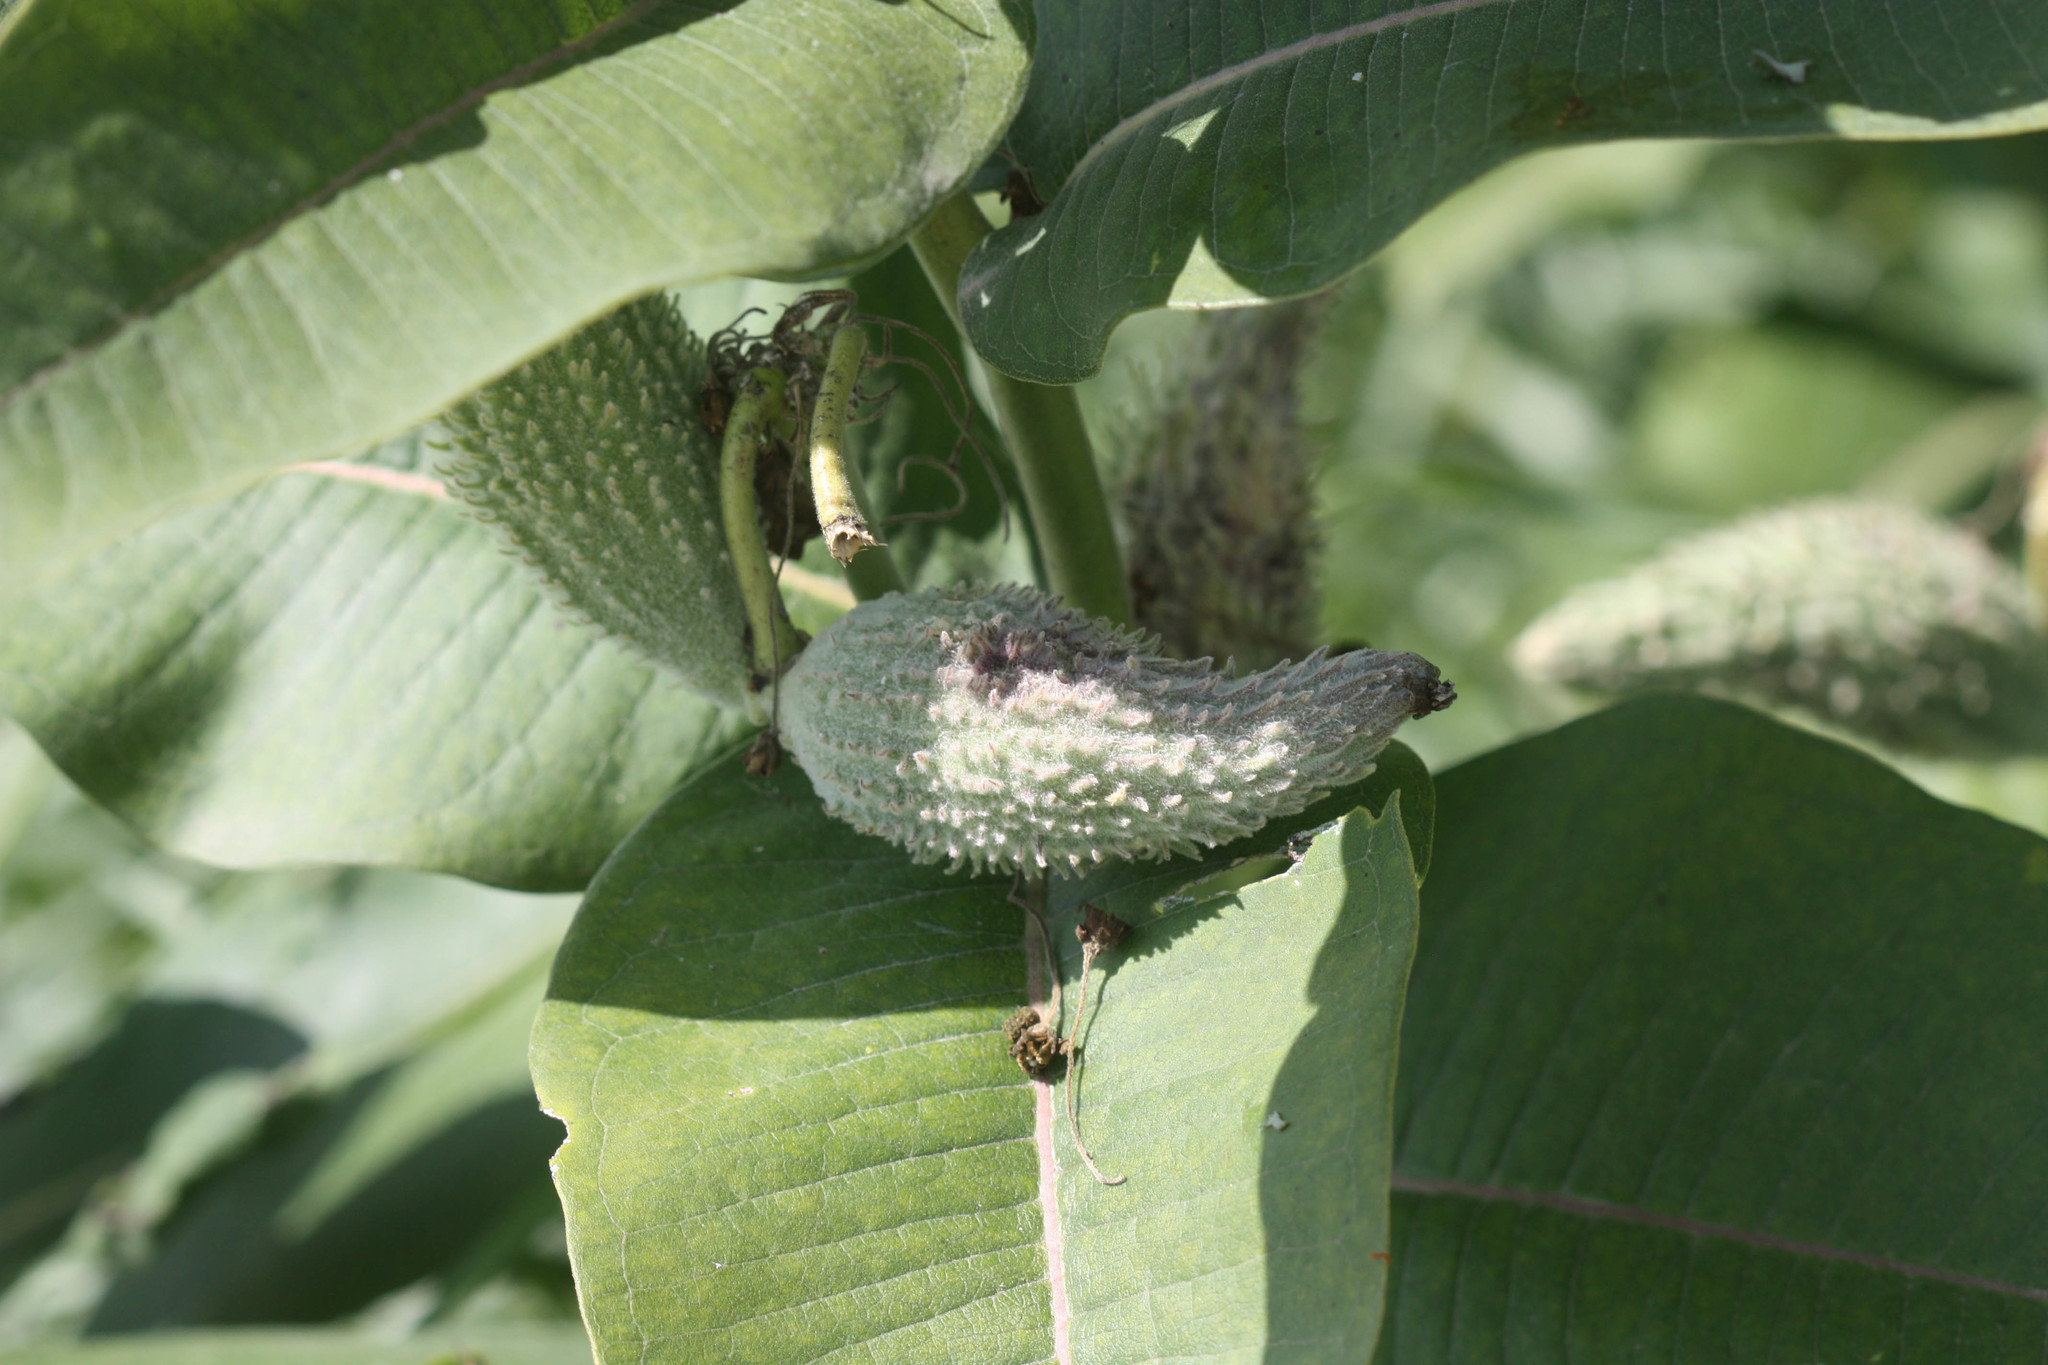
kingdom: Plantae
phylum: Tracheophyta
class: Magnoliopsida
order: Gentianales
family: Apocynaceae
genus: Asclepias
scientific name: Asclepias syriaca
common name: Common milkweed
